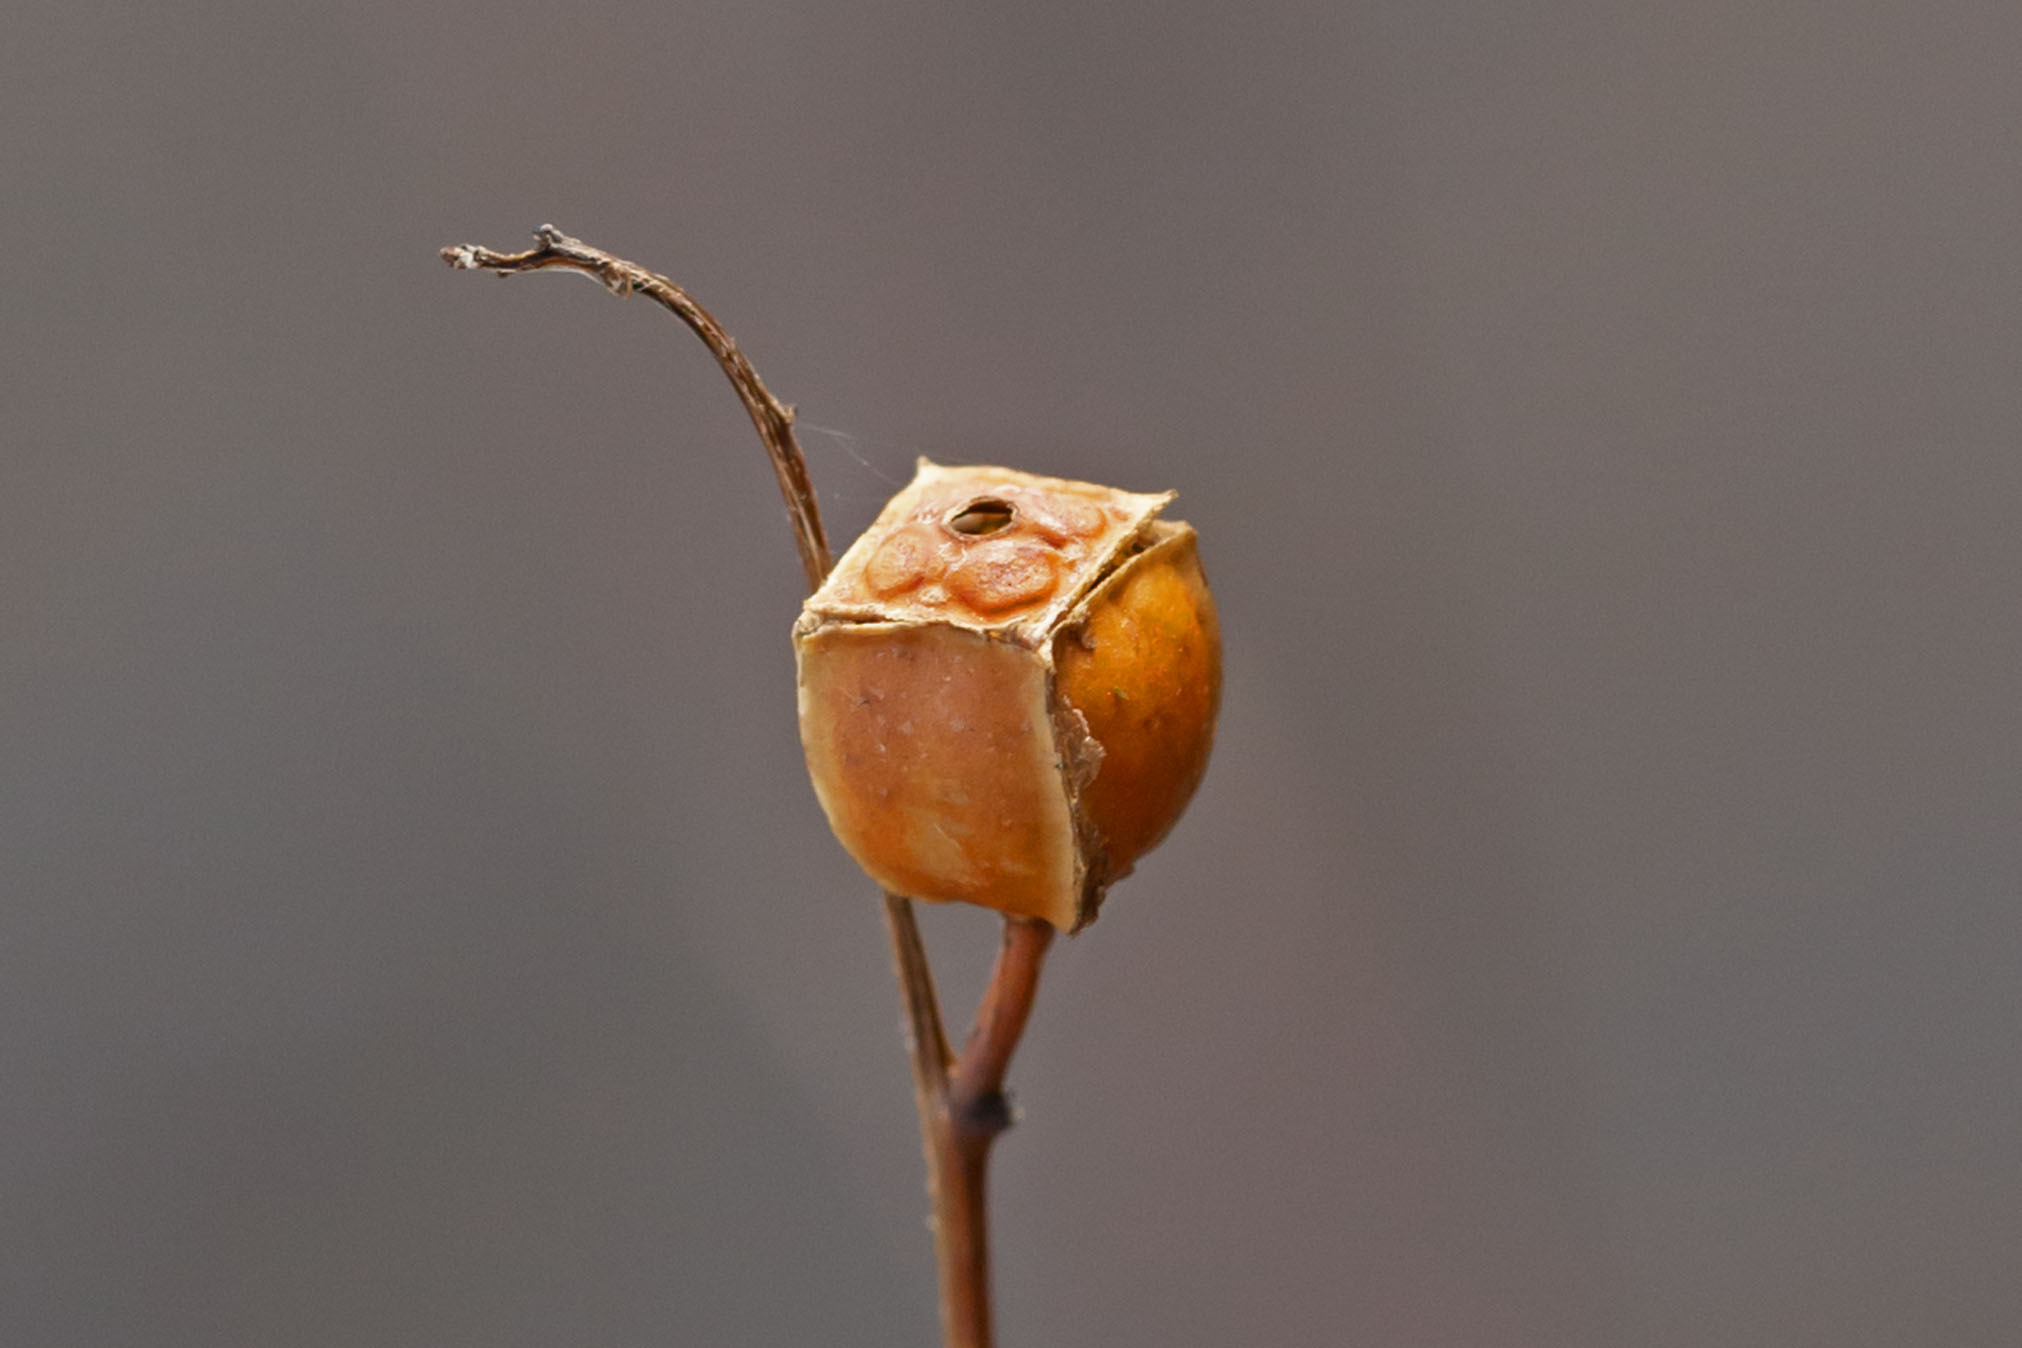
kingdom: Plantae
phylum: Tracheophyta
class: Magnoliopsida
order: Myrtales
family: Onagraceae
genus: Ludwigia
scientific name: Ludwigia alternifolia
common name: Rattlebox
